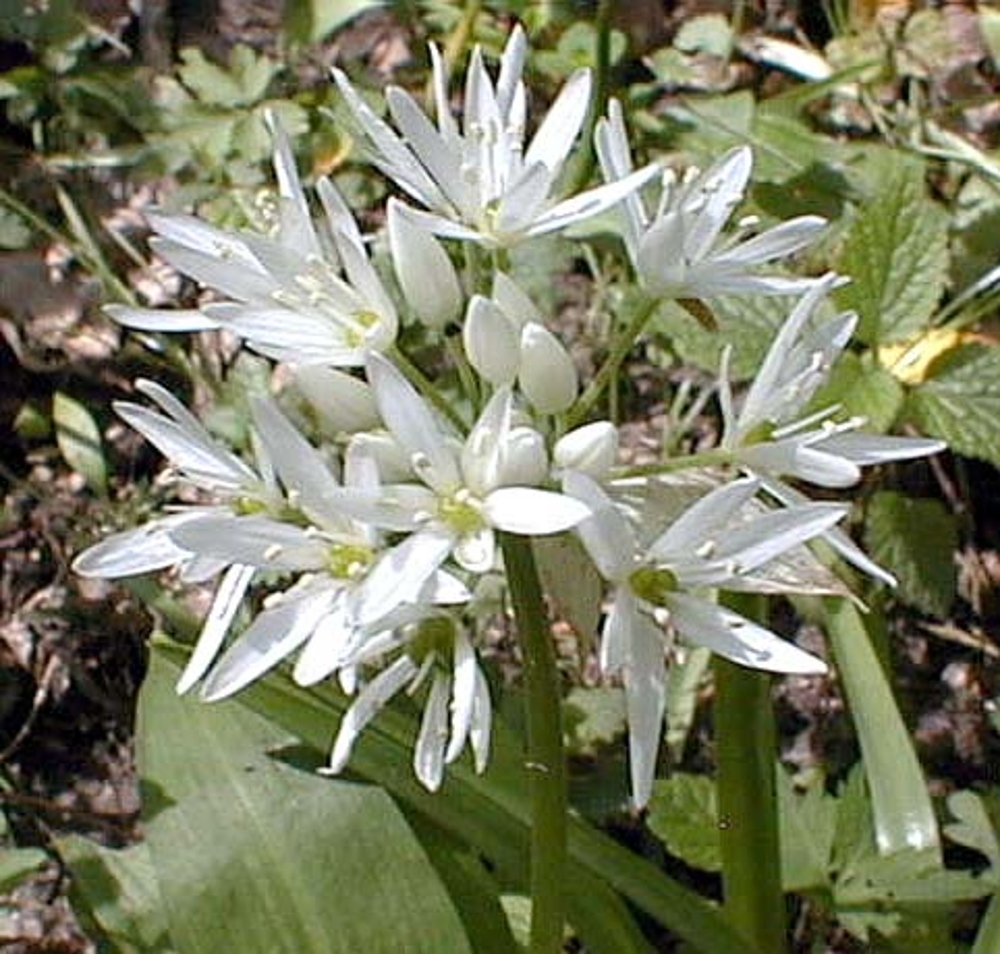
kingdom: Plantae
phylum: Tracheophyta
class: Liliopsida
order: Asparagales
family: Amaryllidaceae
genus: Allium
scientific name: Allium ursinum
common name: Ramsons
